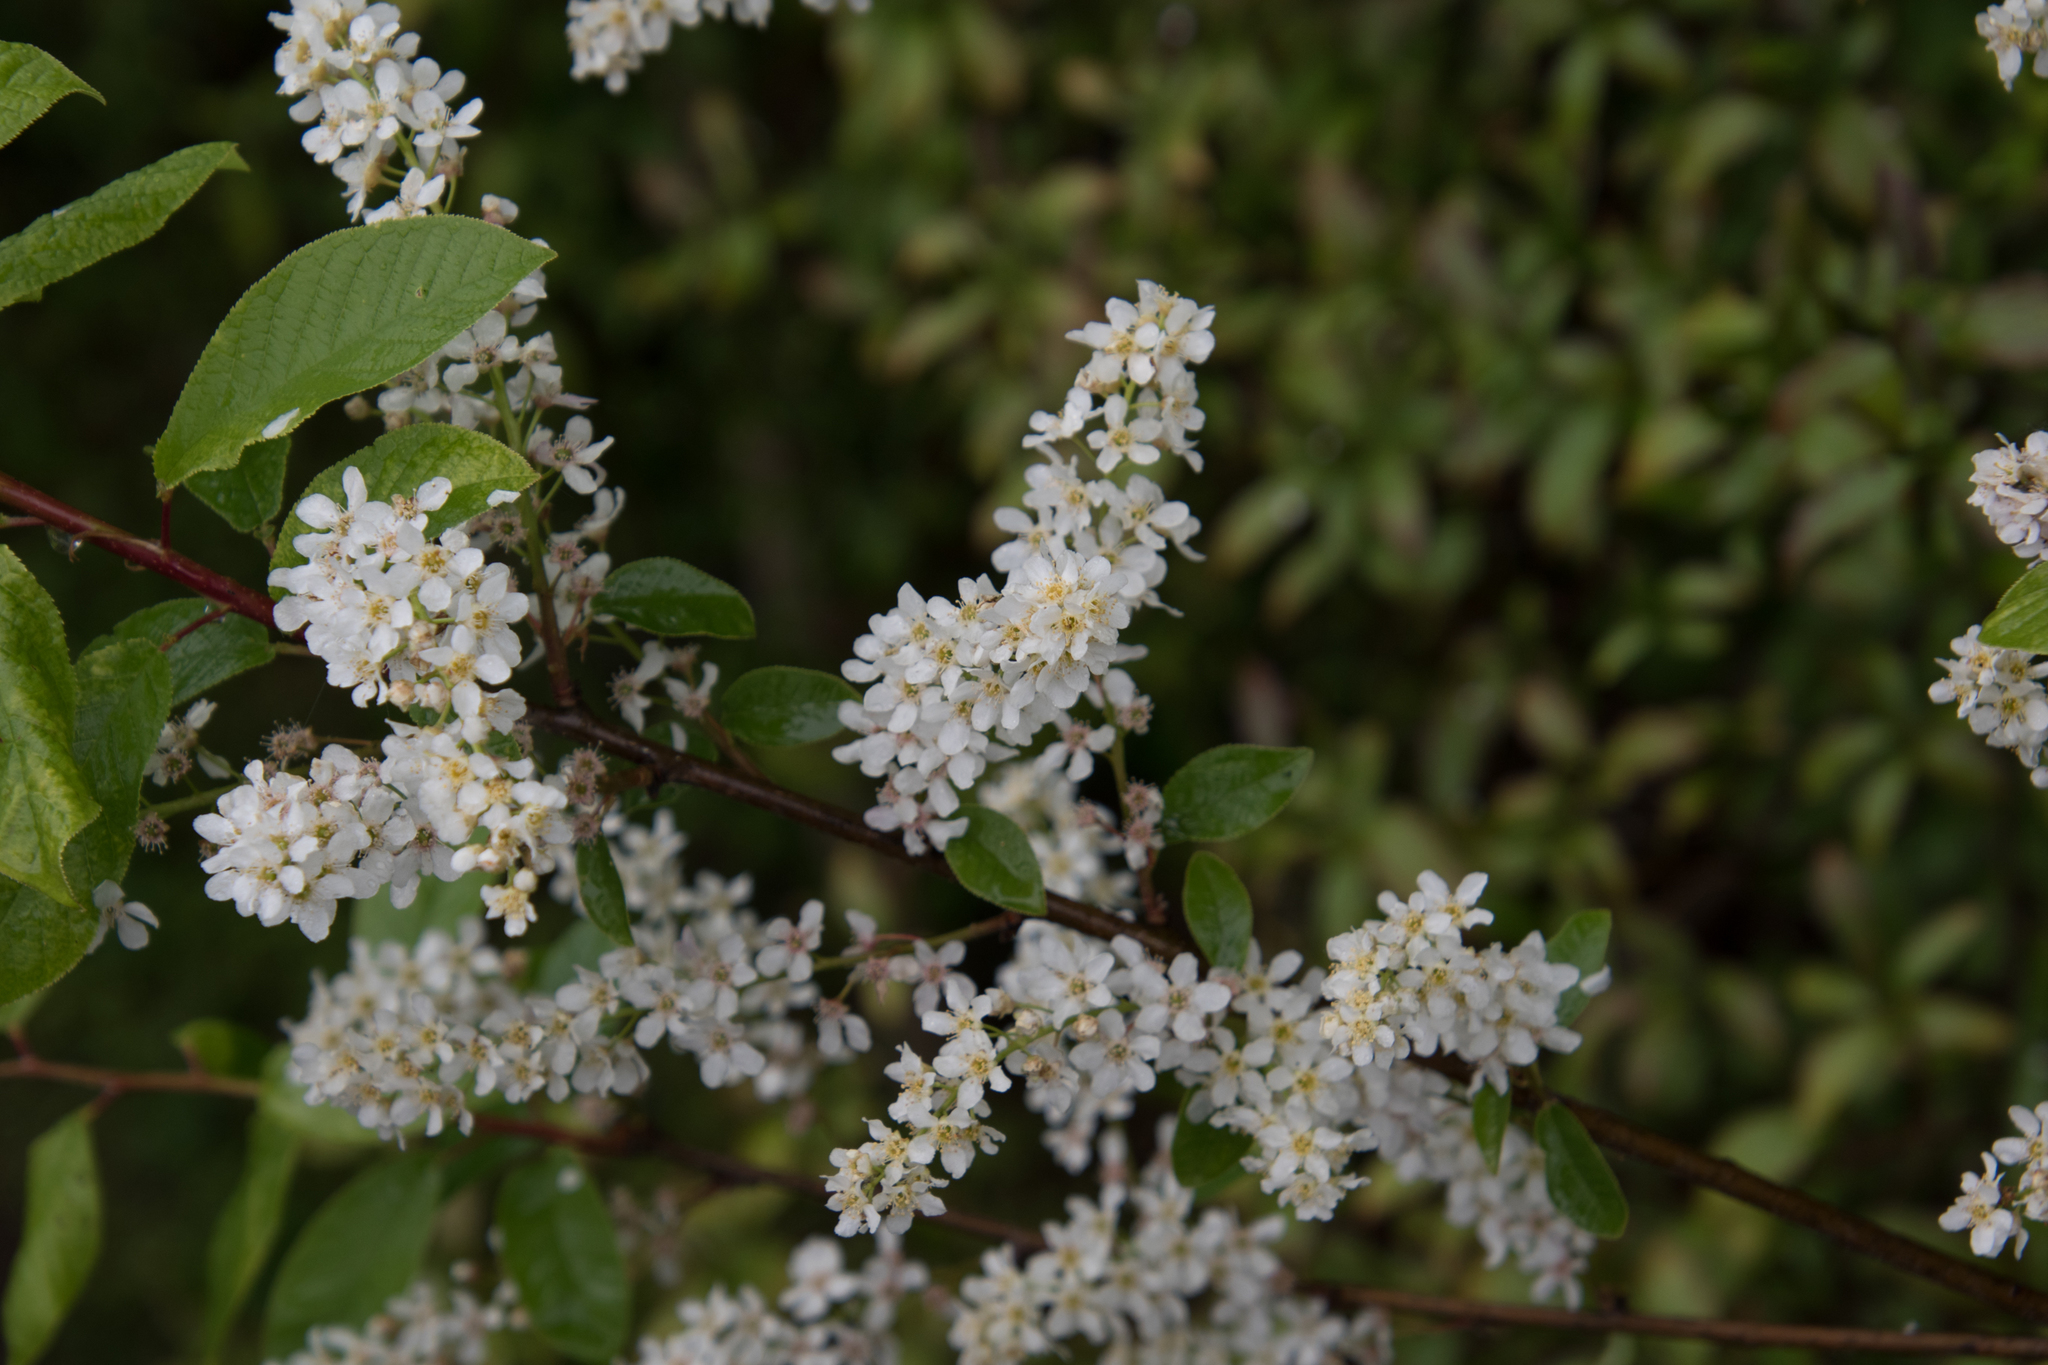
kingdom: Plantae
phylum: Tracheophyta
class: Magnoliopsida
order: Rosales
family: Rosaceae
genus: Prunus
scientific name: Prunus padus
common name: Bird cherry
